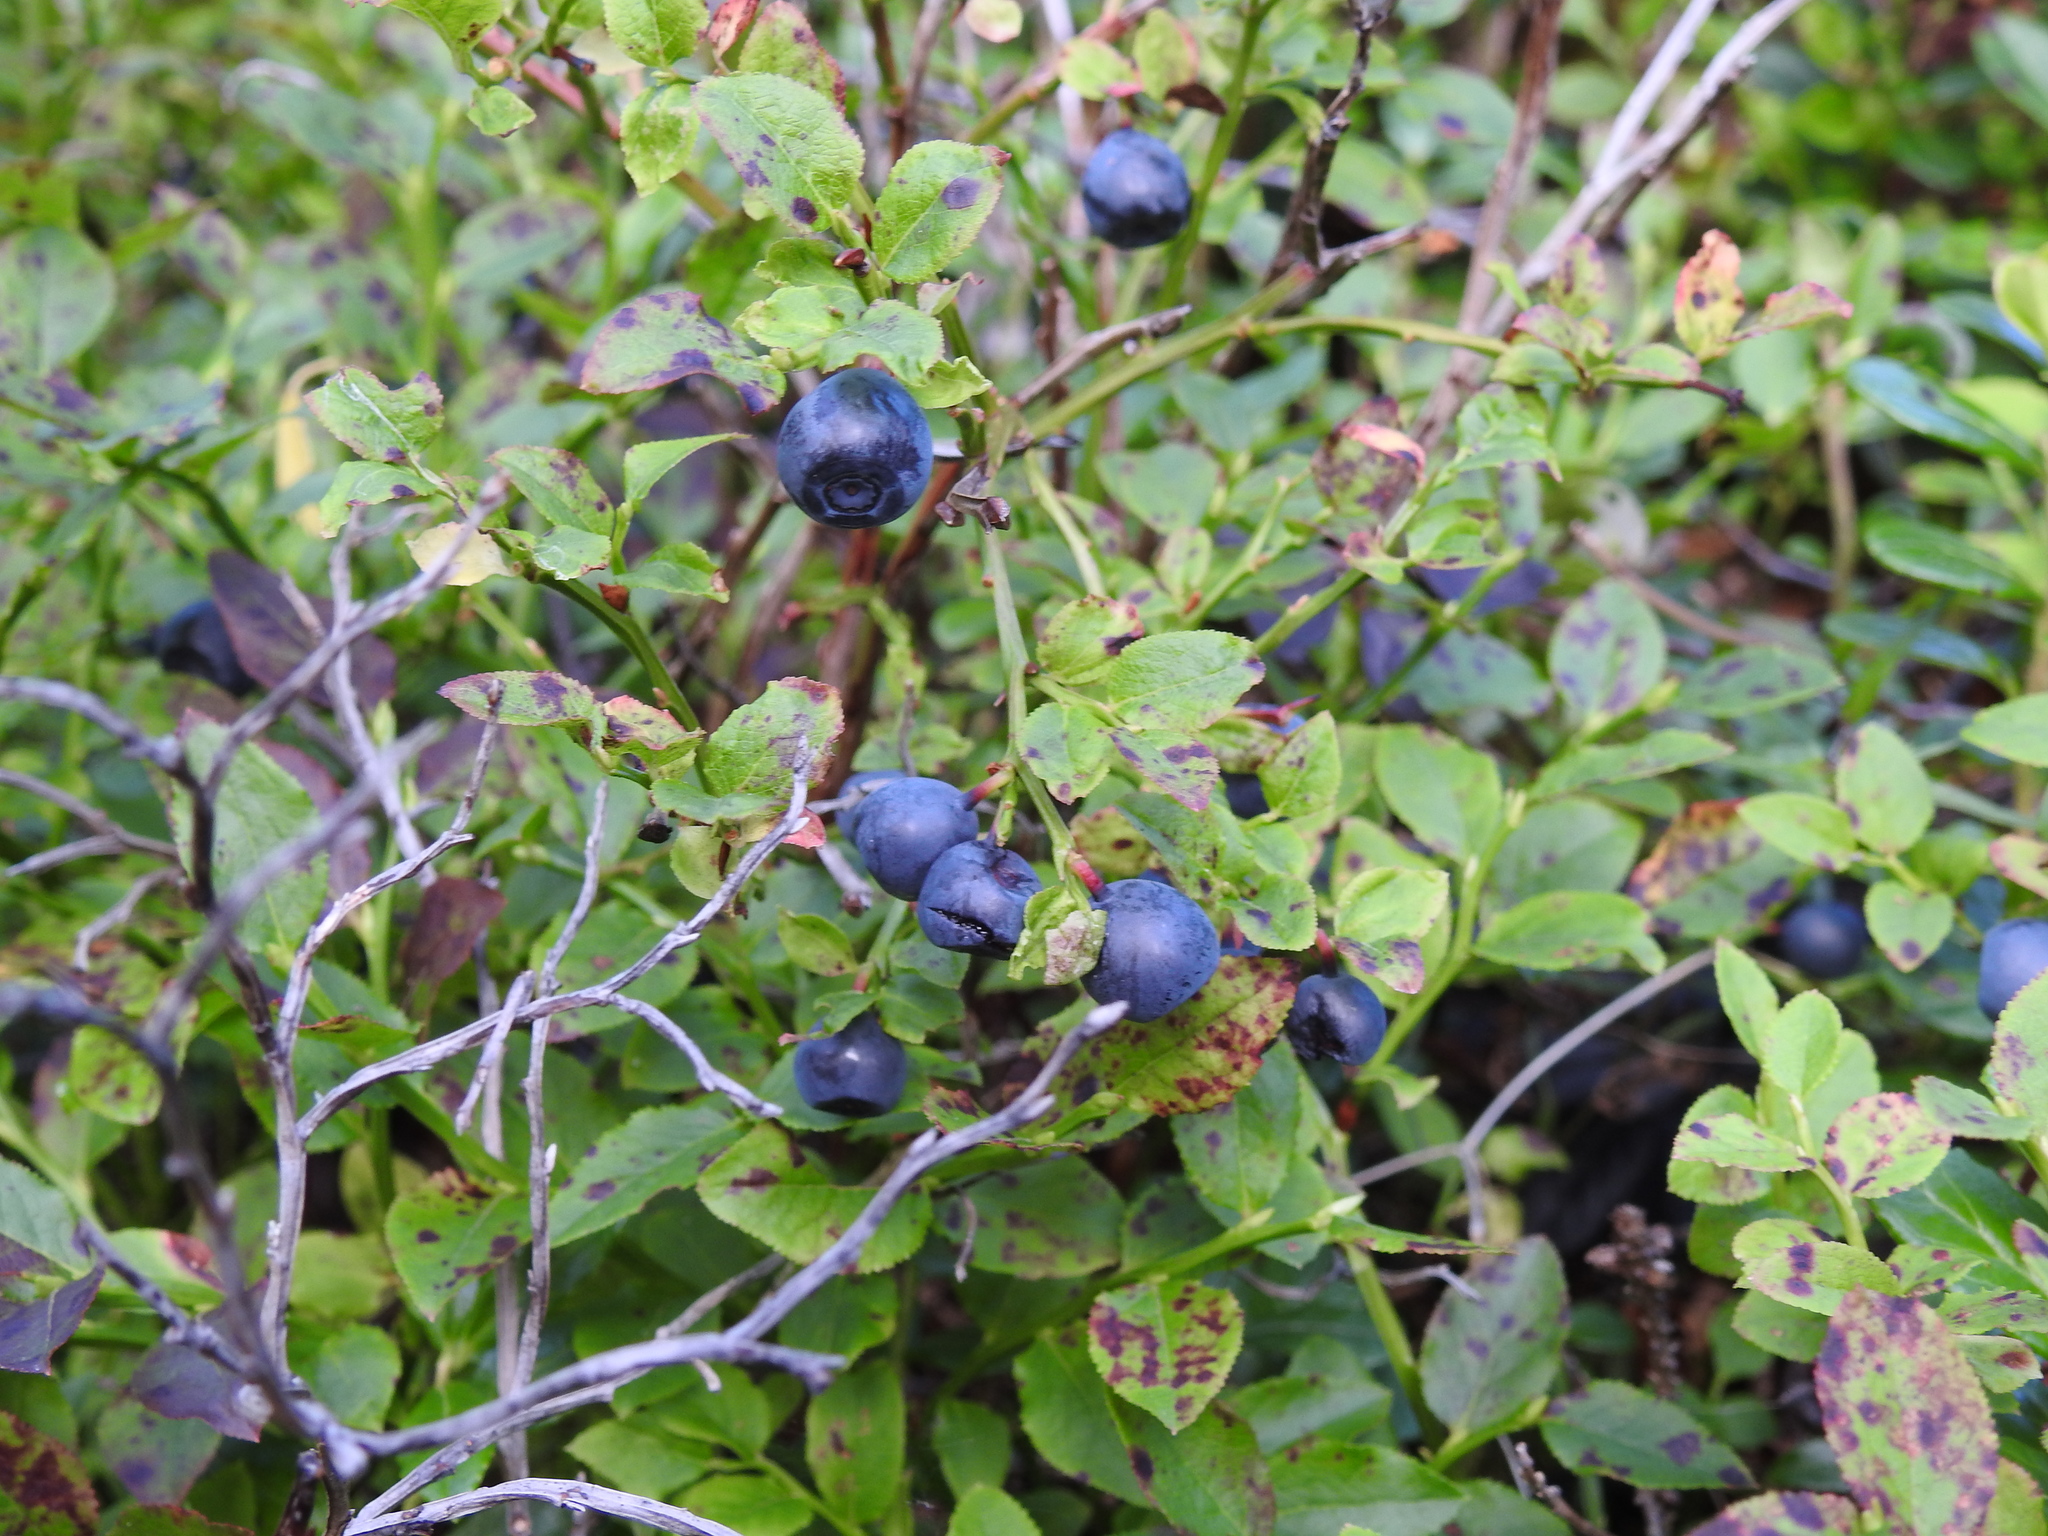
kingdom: Plantae
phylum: Tracheophyta
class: Magnoliopsida
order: Ericales
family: Ericaceae
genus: Vaccinium
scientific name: Vaccinium myrtillus
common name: Bilberry
